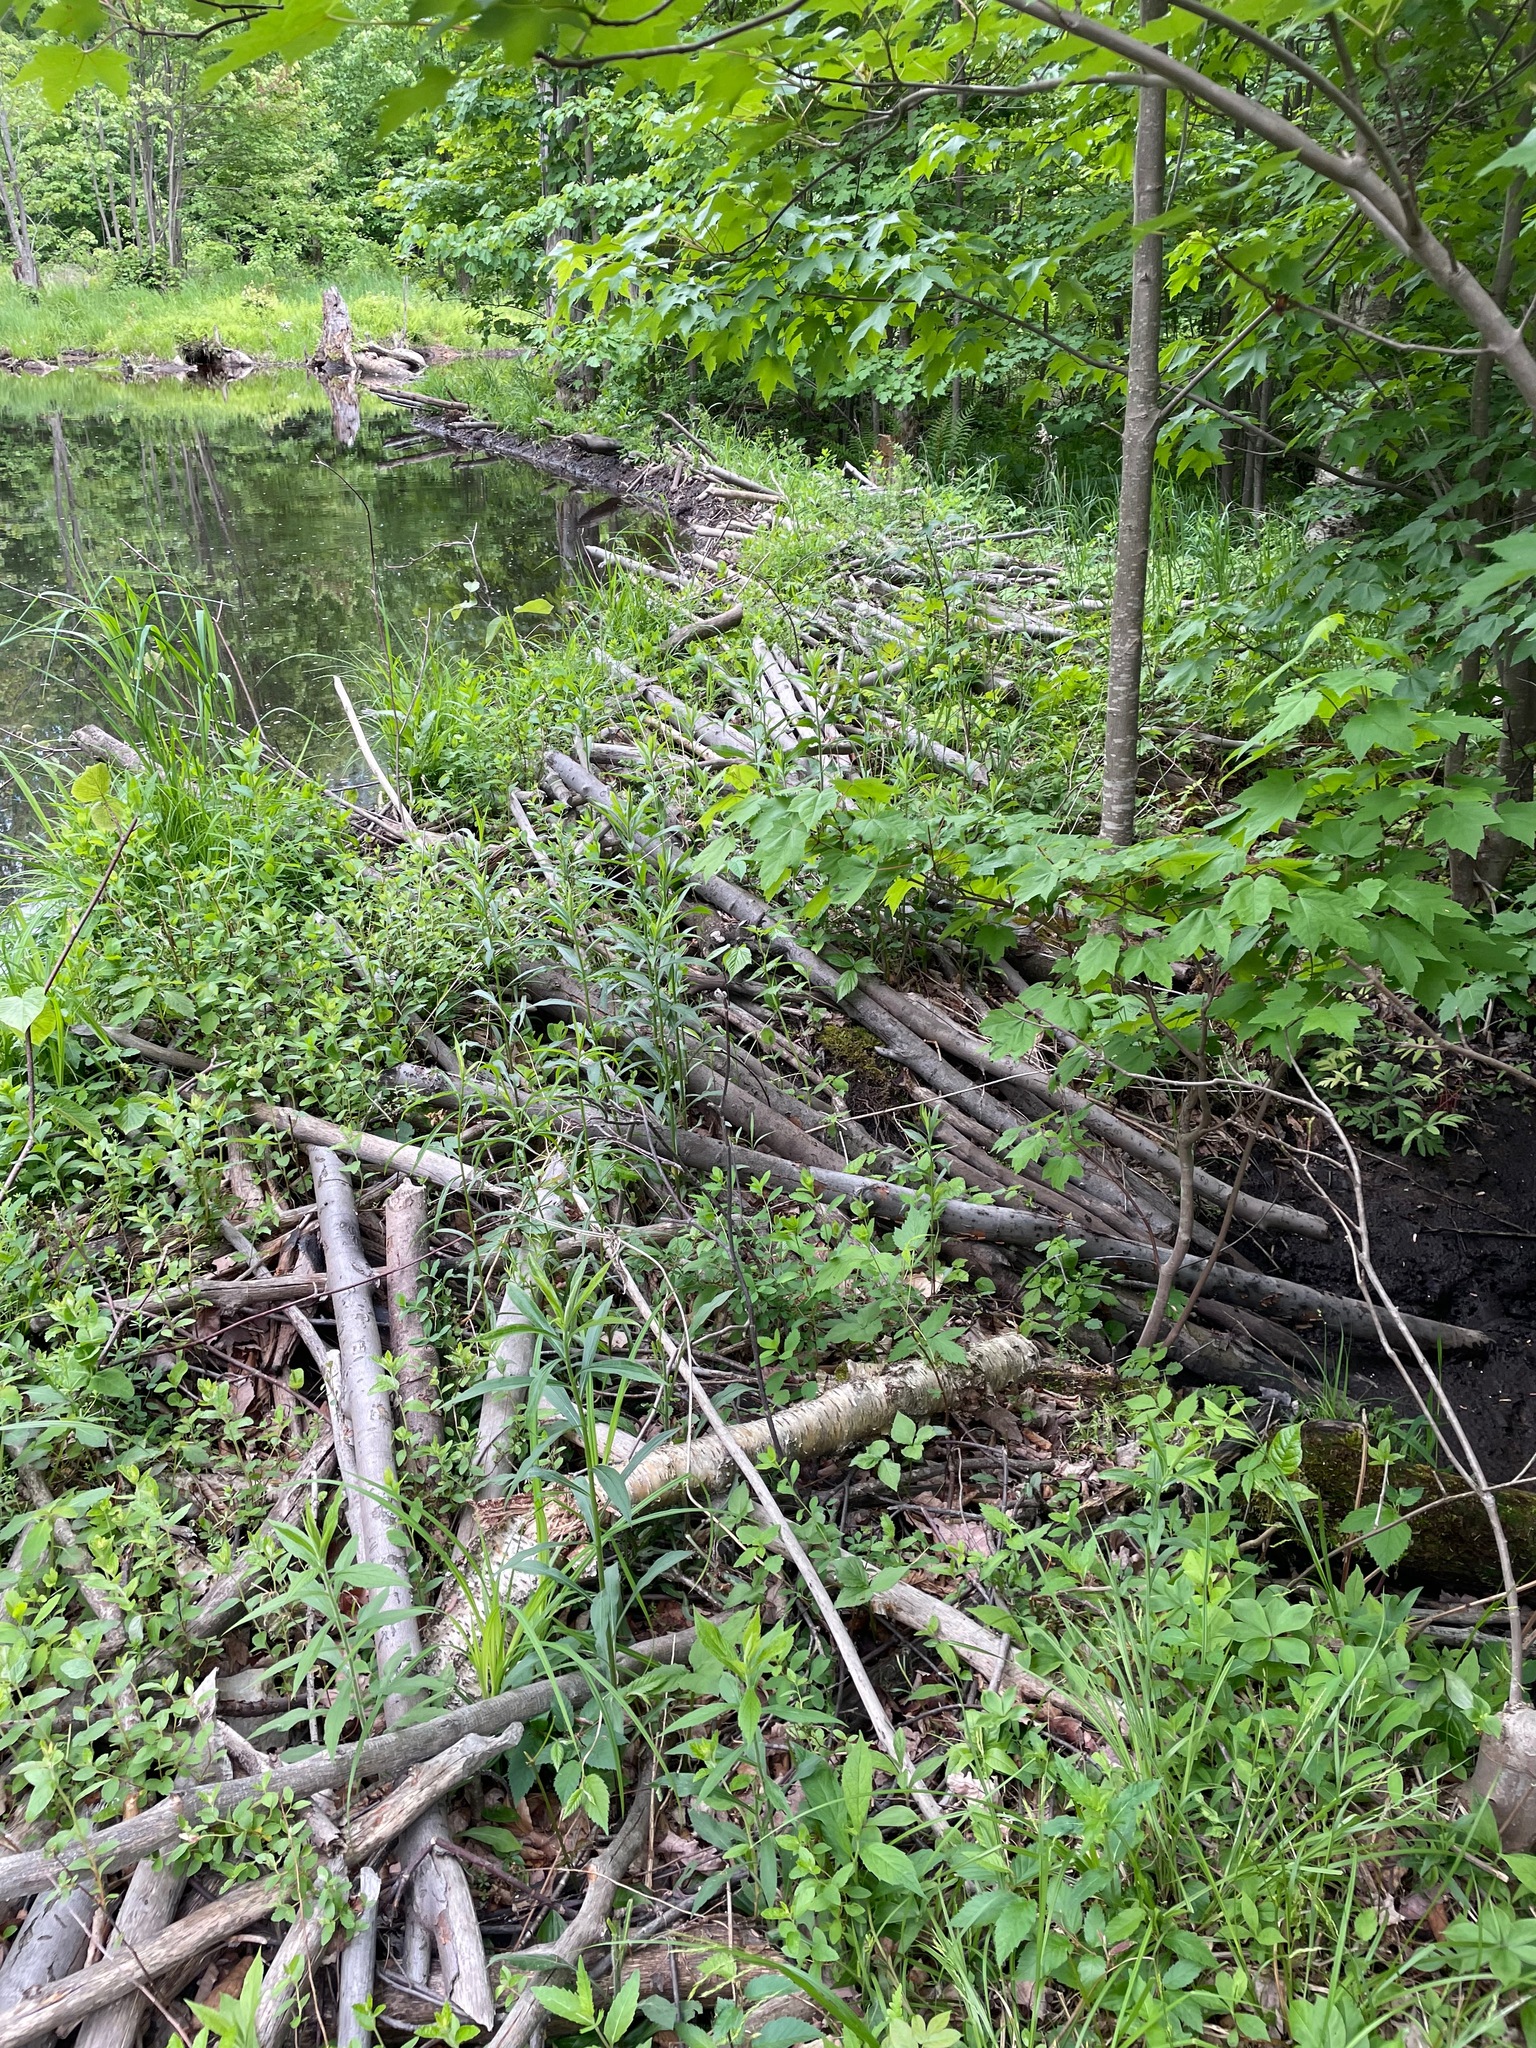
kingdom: Animalia
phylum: Chordata
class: Mammalia
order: Rodentia
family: Castoridae
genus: Castor
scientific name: Castor canadensis
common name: American beaver
